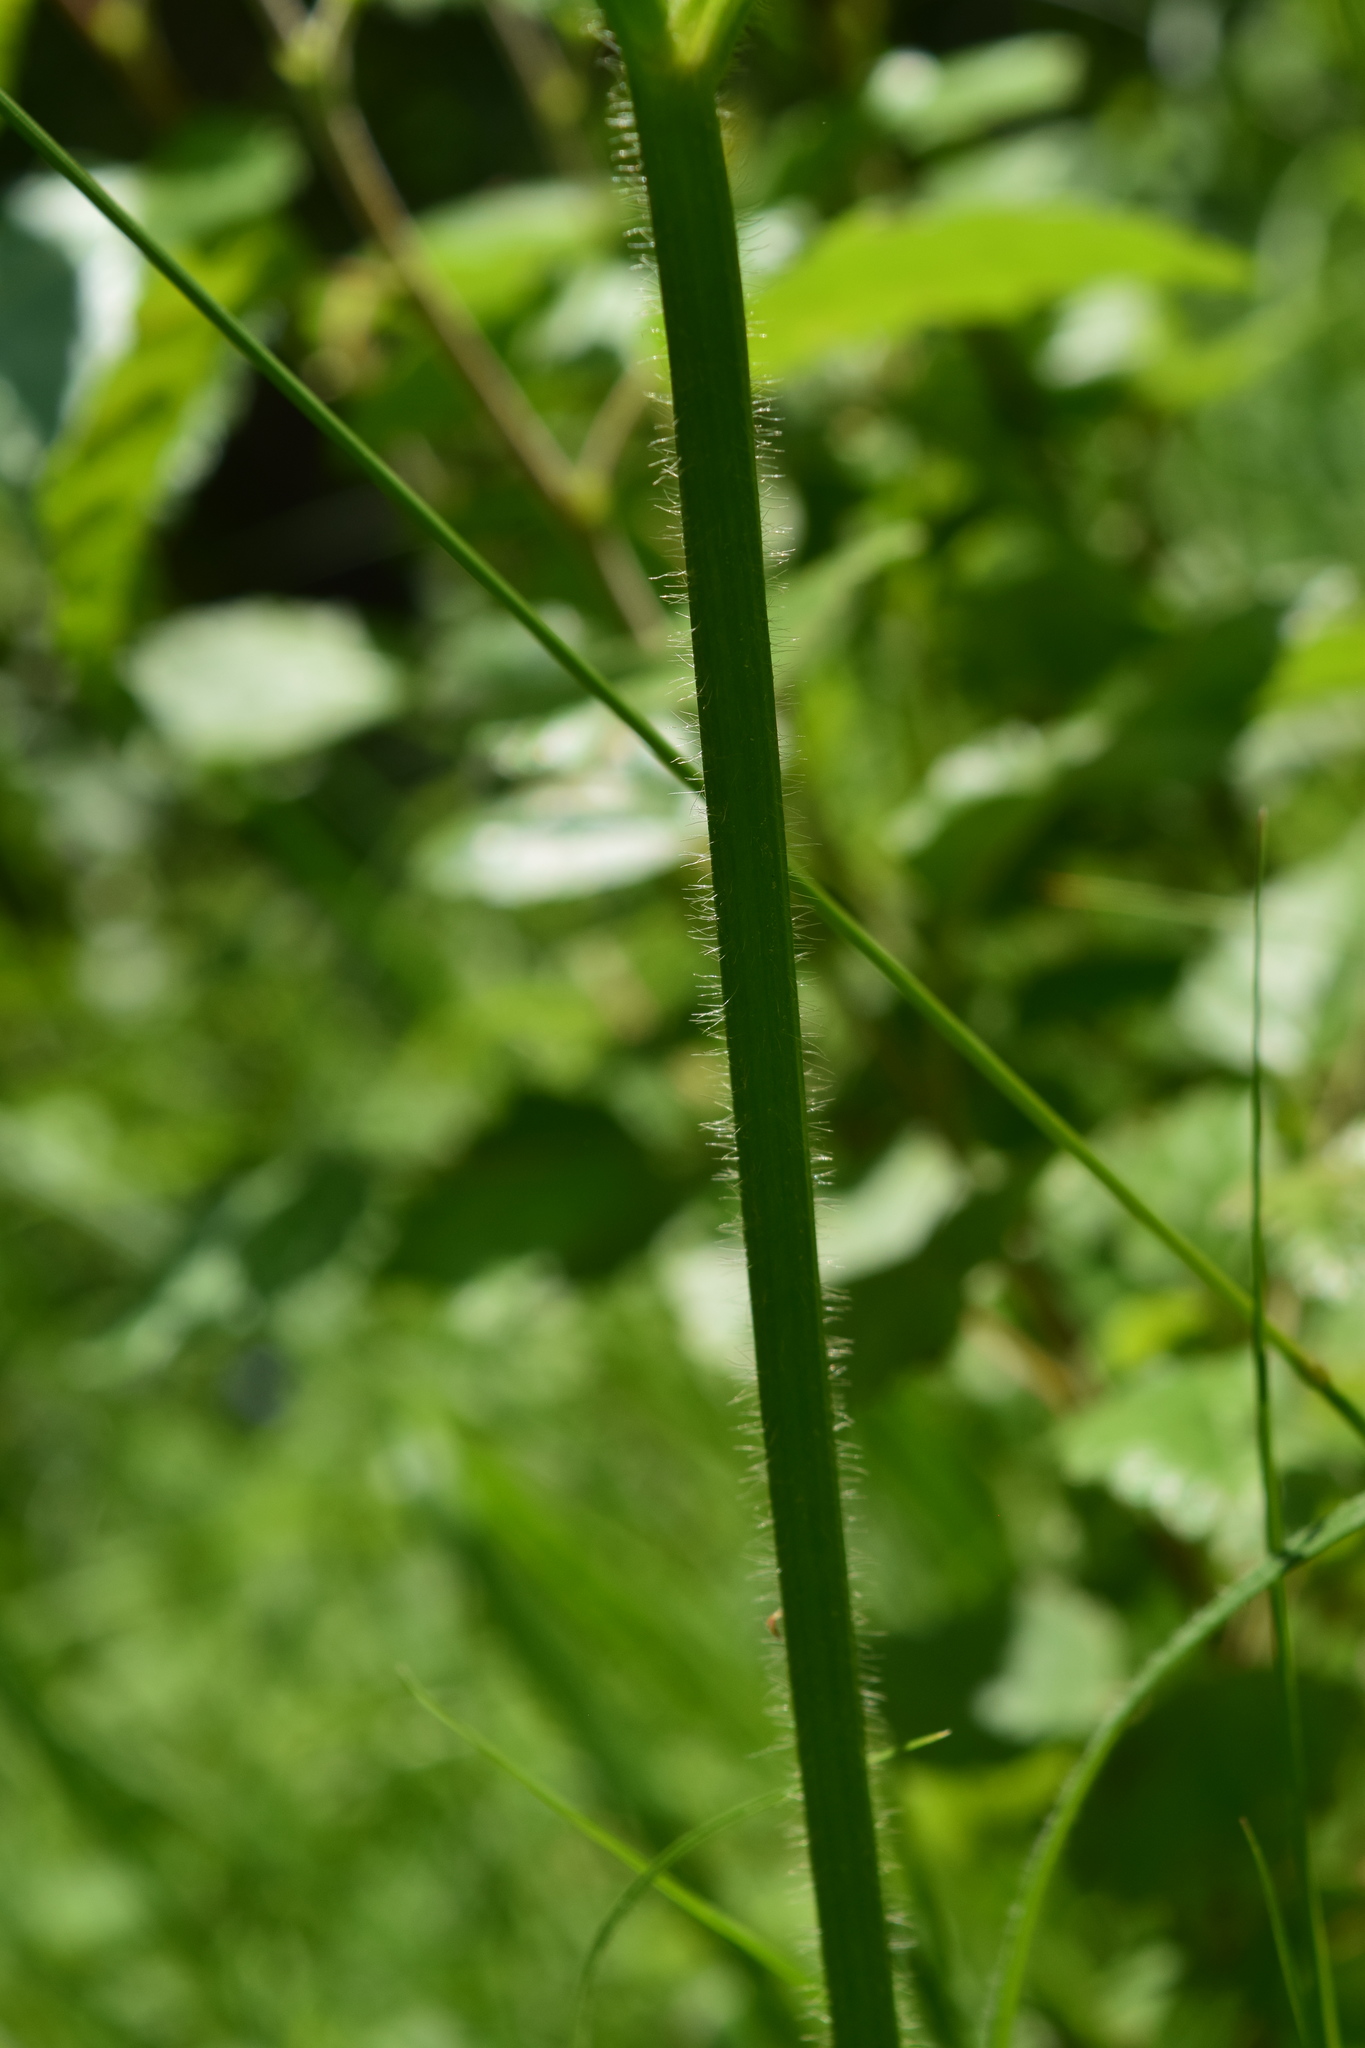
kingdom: Plantae
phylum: Tracheophyta
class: Magnoliopsida
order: Ranunculales
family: Ranunculaceae
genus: Ranunculus
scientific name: Ranunculus polyanthemos
